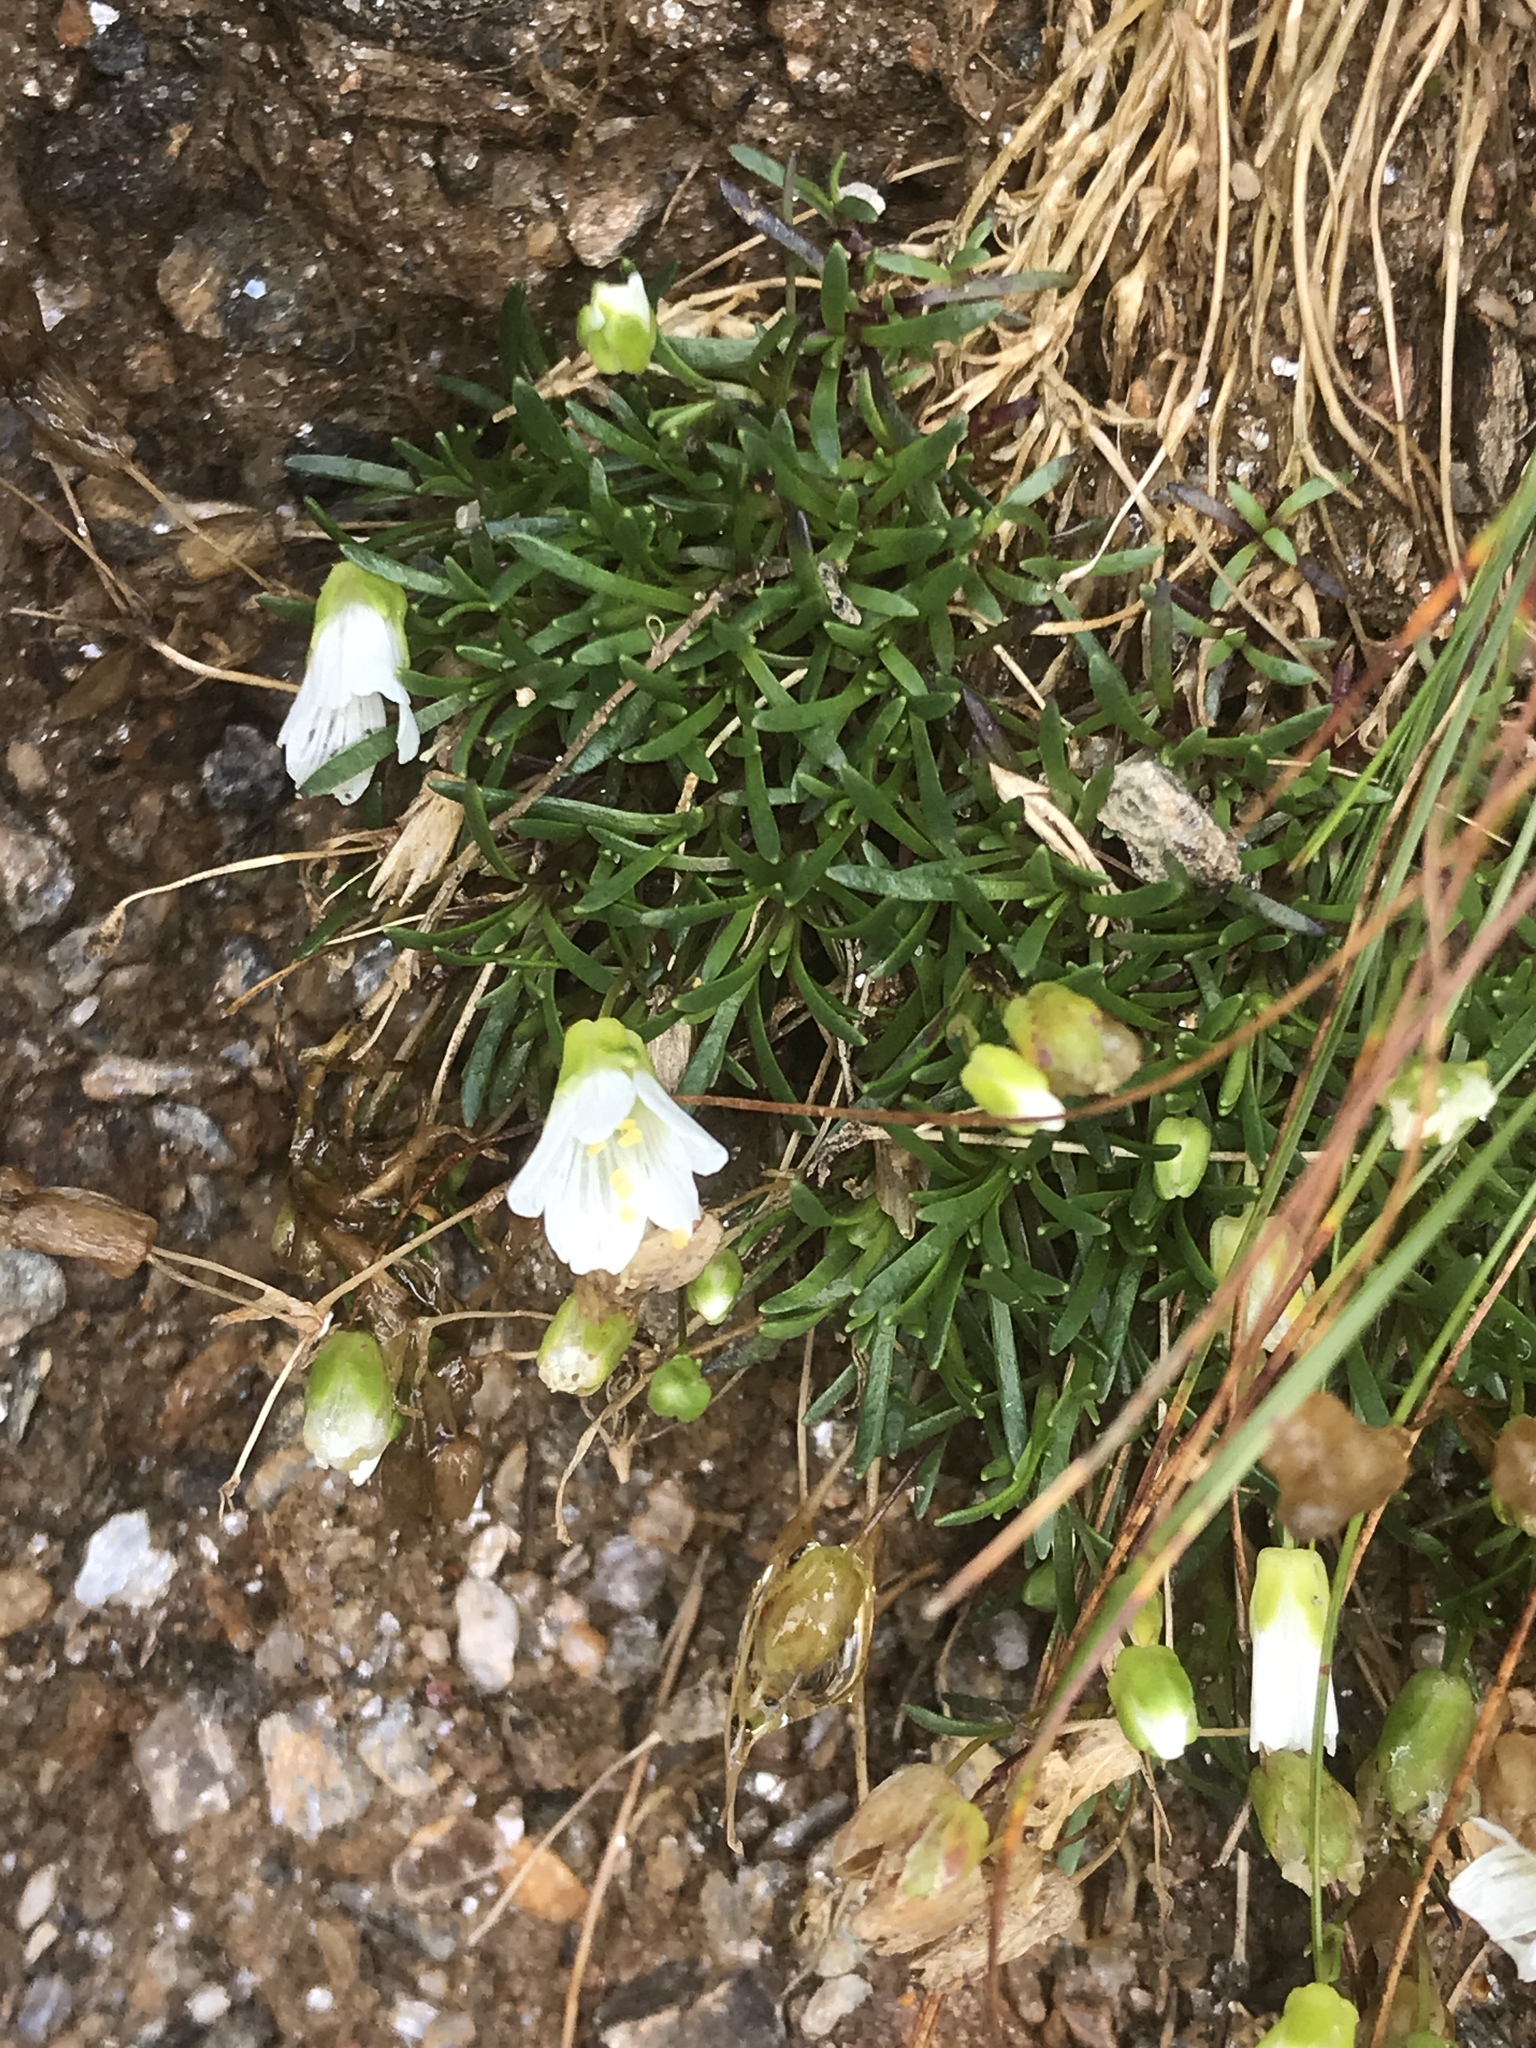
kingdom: Plantae
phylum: Tracheophyta
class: Magnoliopsida
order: Caryophyllales
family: Caryophyllaceae
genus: Geocarpon
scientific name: Geocarpon groenlandicum
